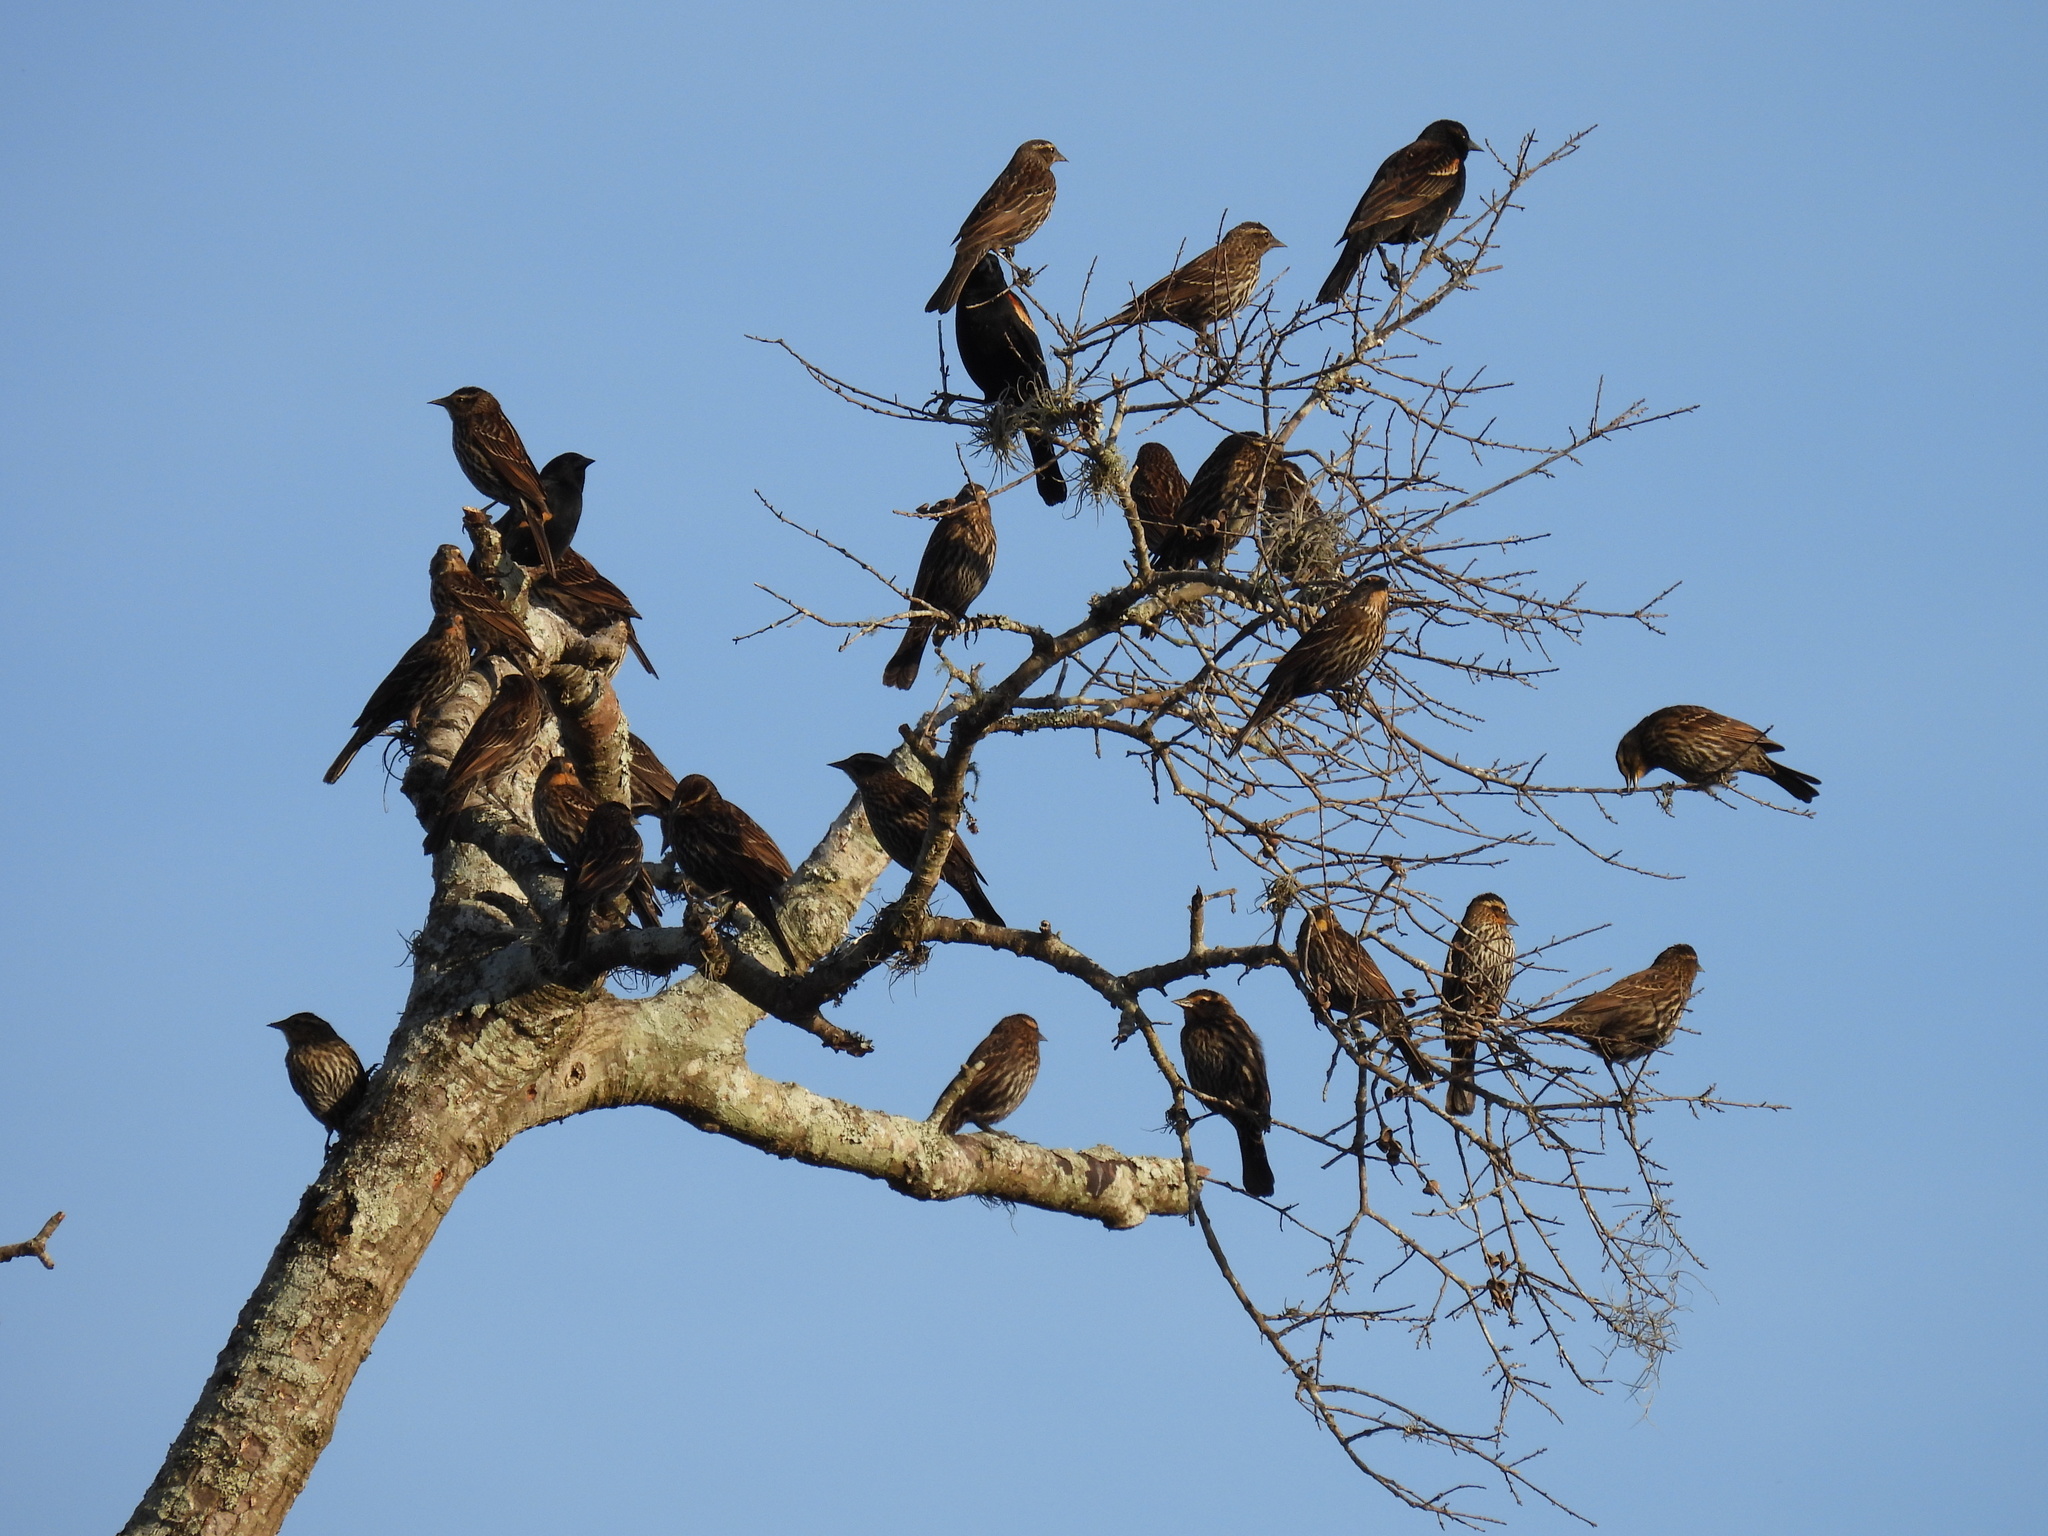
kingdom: Animalia
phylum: Chordata
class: Aves
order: Passeriformes
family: Icteridae
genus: Agelaius
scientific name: Agelaius phoeniceus
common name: Red-winged blackbird
